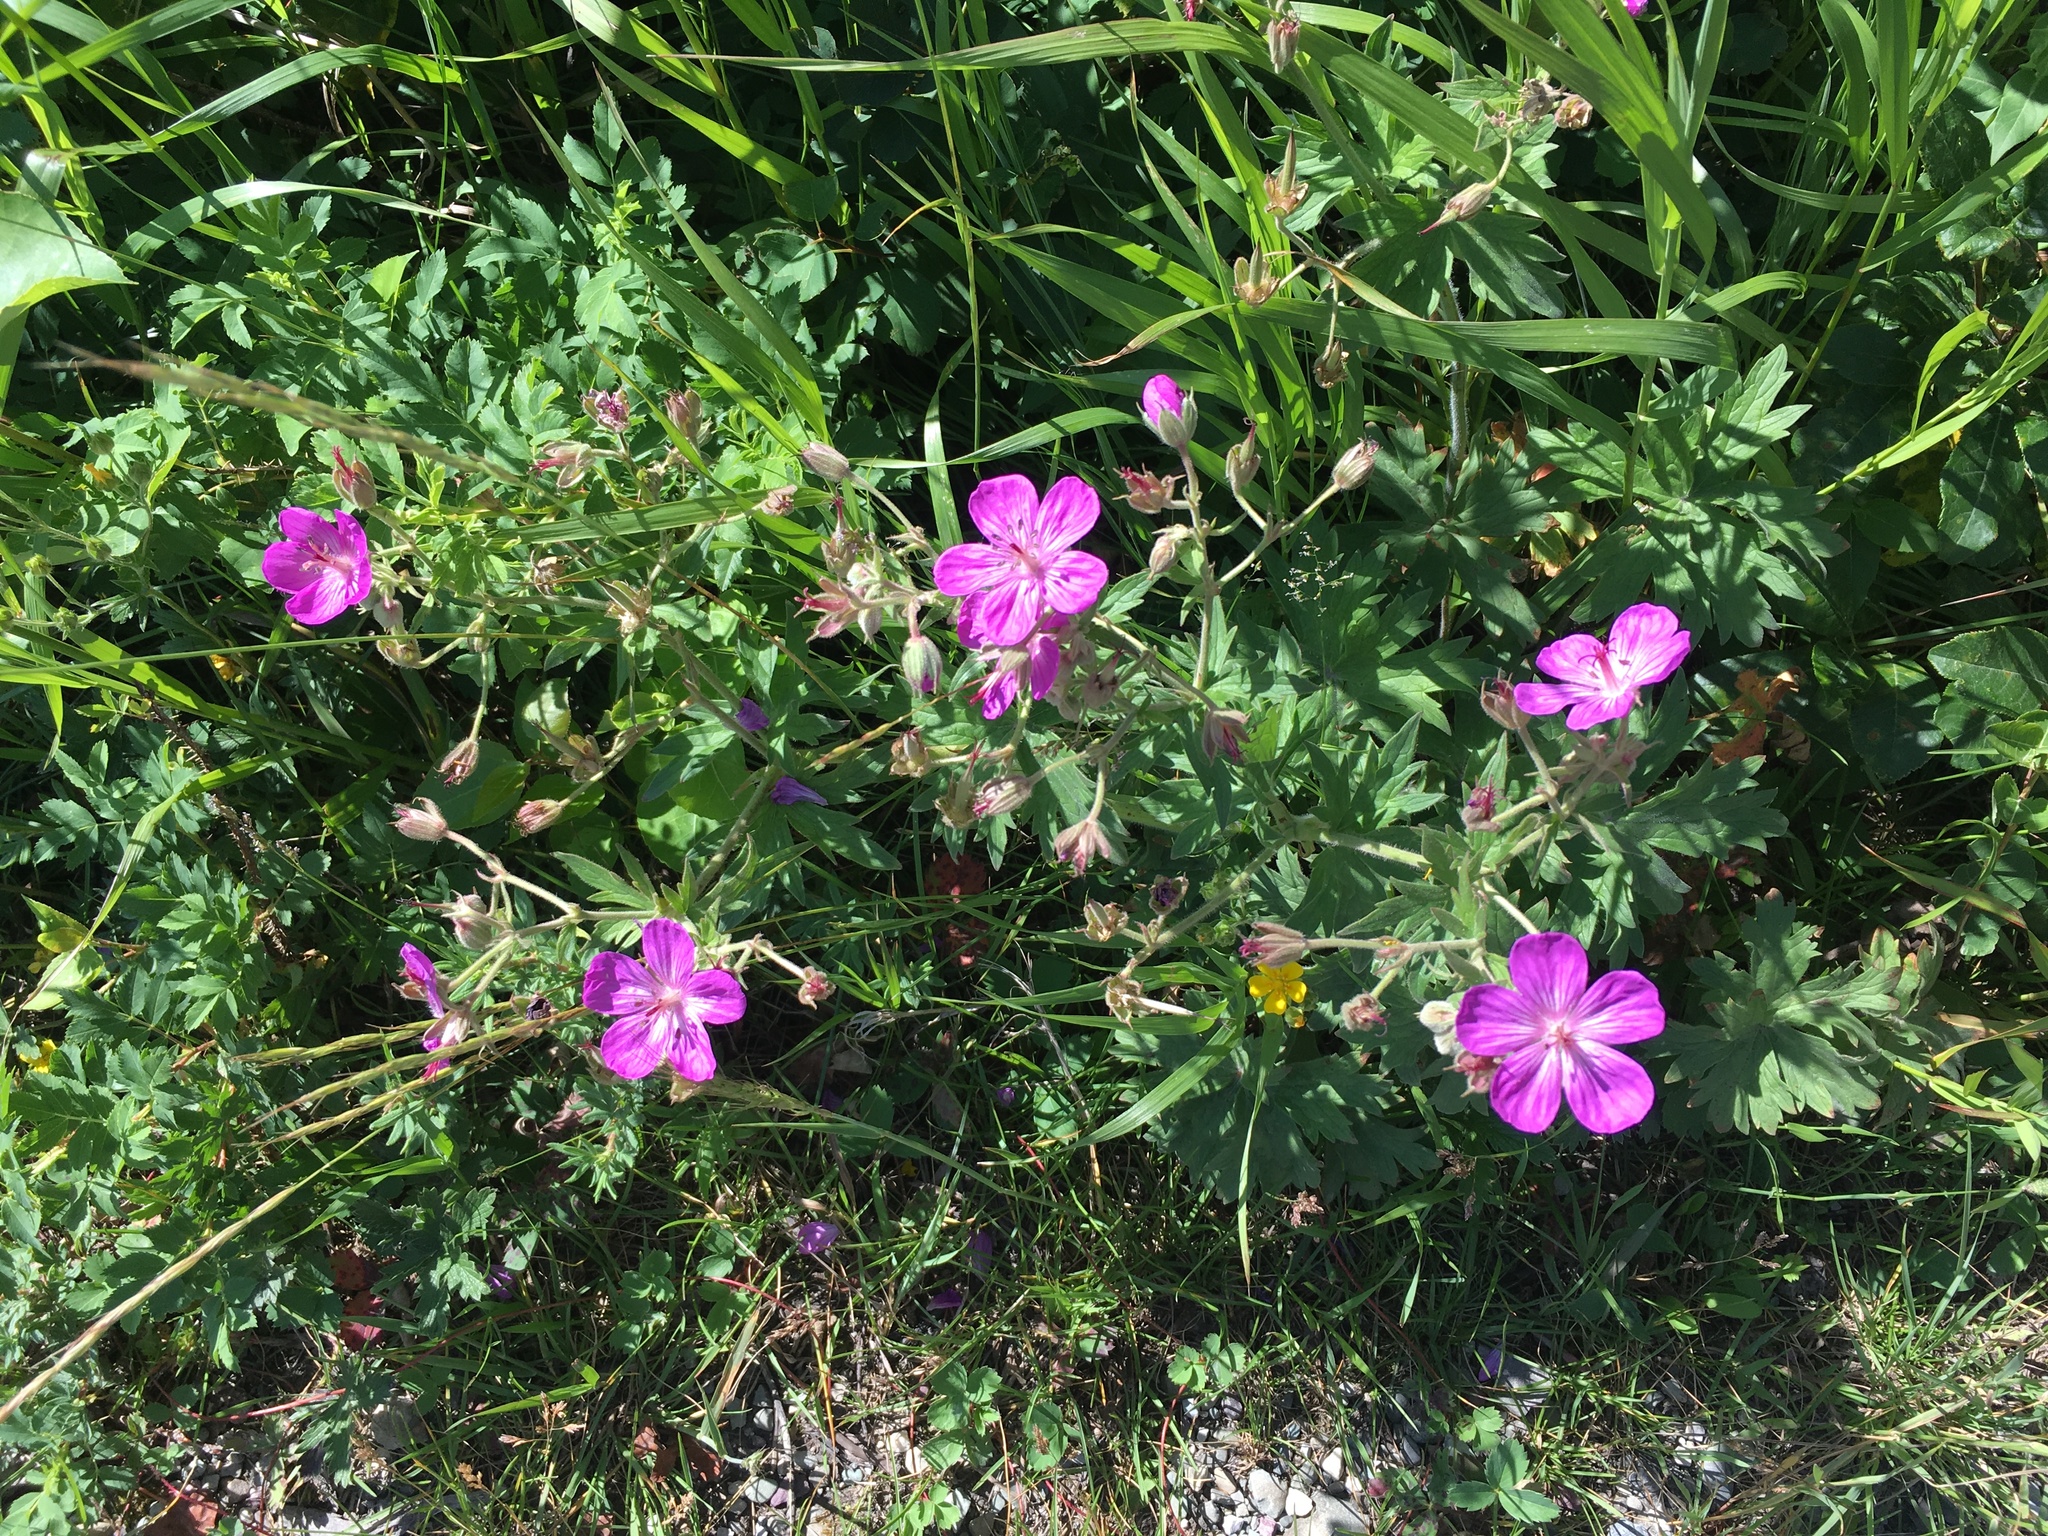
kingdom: Plantae
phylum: Tracheophyta
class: Magnoliopsida
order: Geraniales
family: Geraniaceae
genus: Geranium
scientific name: Geranium viscosissimum
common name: Purple geranium
